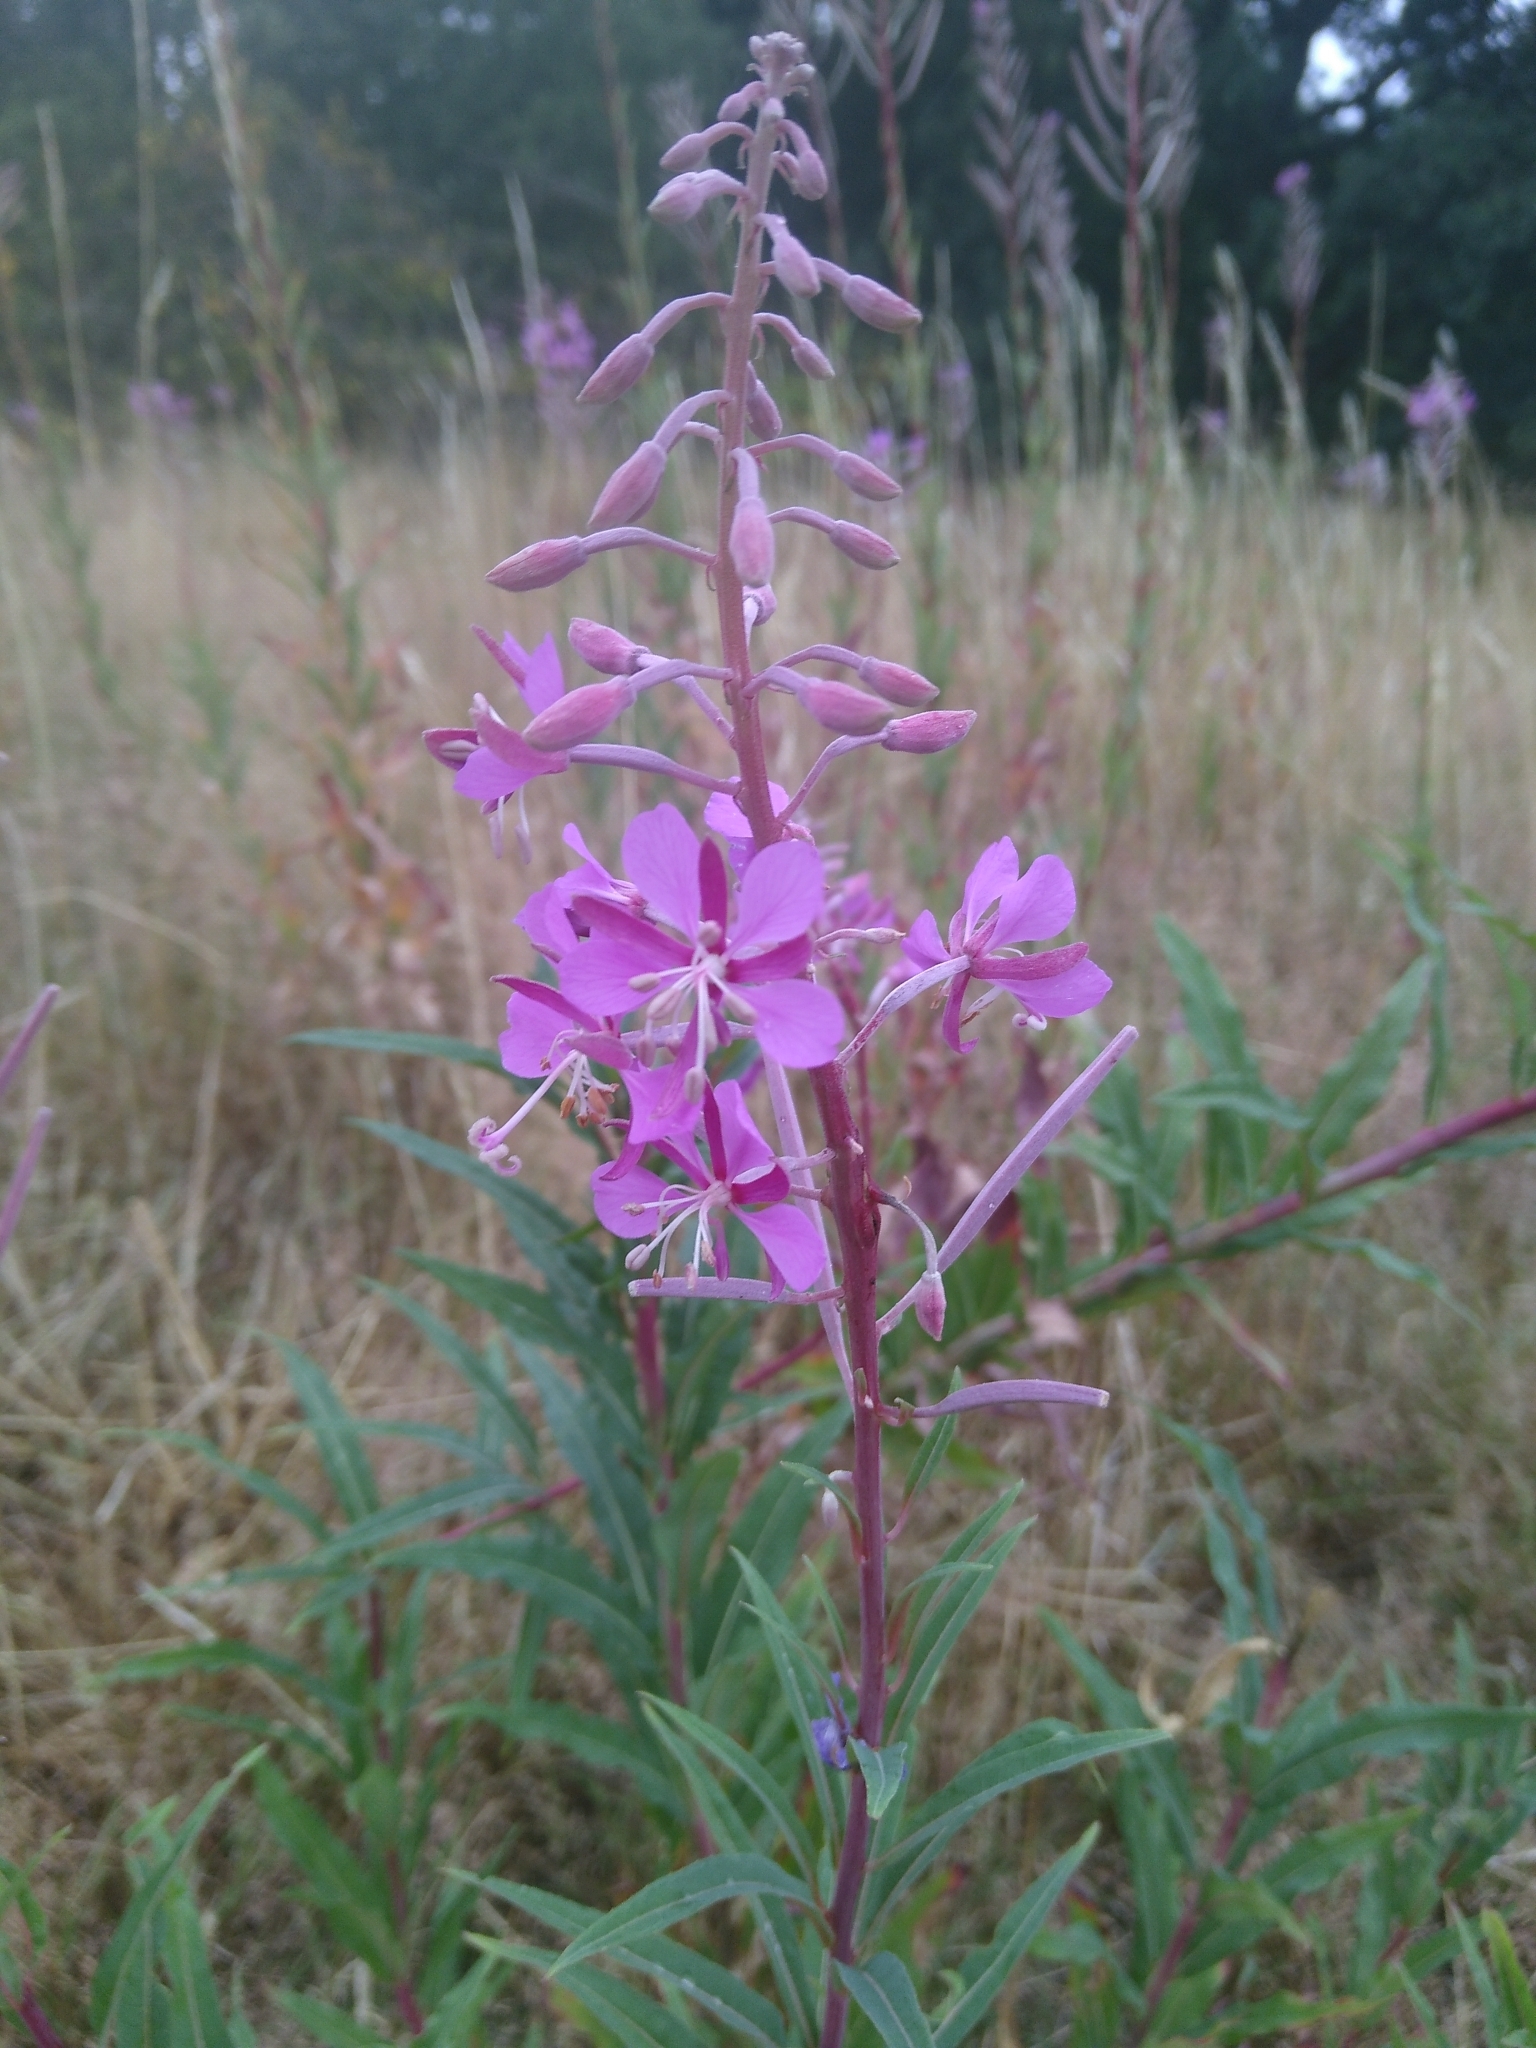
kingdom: Plantae
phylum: Tracheophyta
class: Magnoliopsida
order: Myrtales
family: Onagraceae
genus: Chamaenerion
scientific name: Chamaenerion angustifolium
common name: Fireweed
